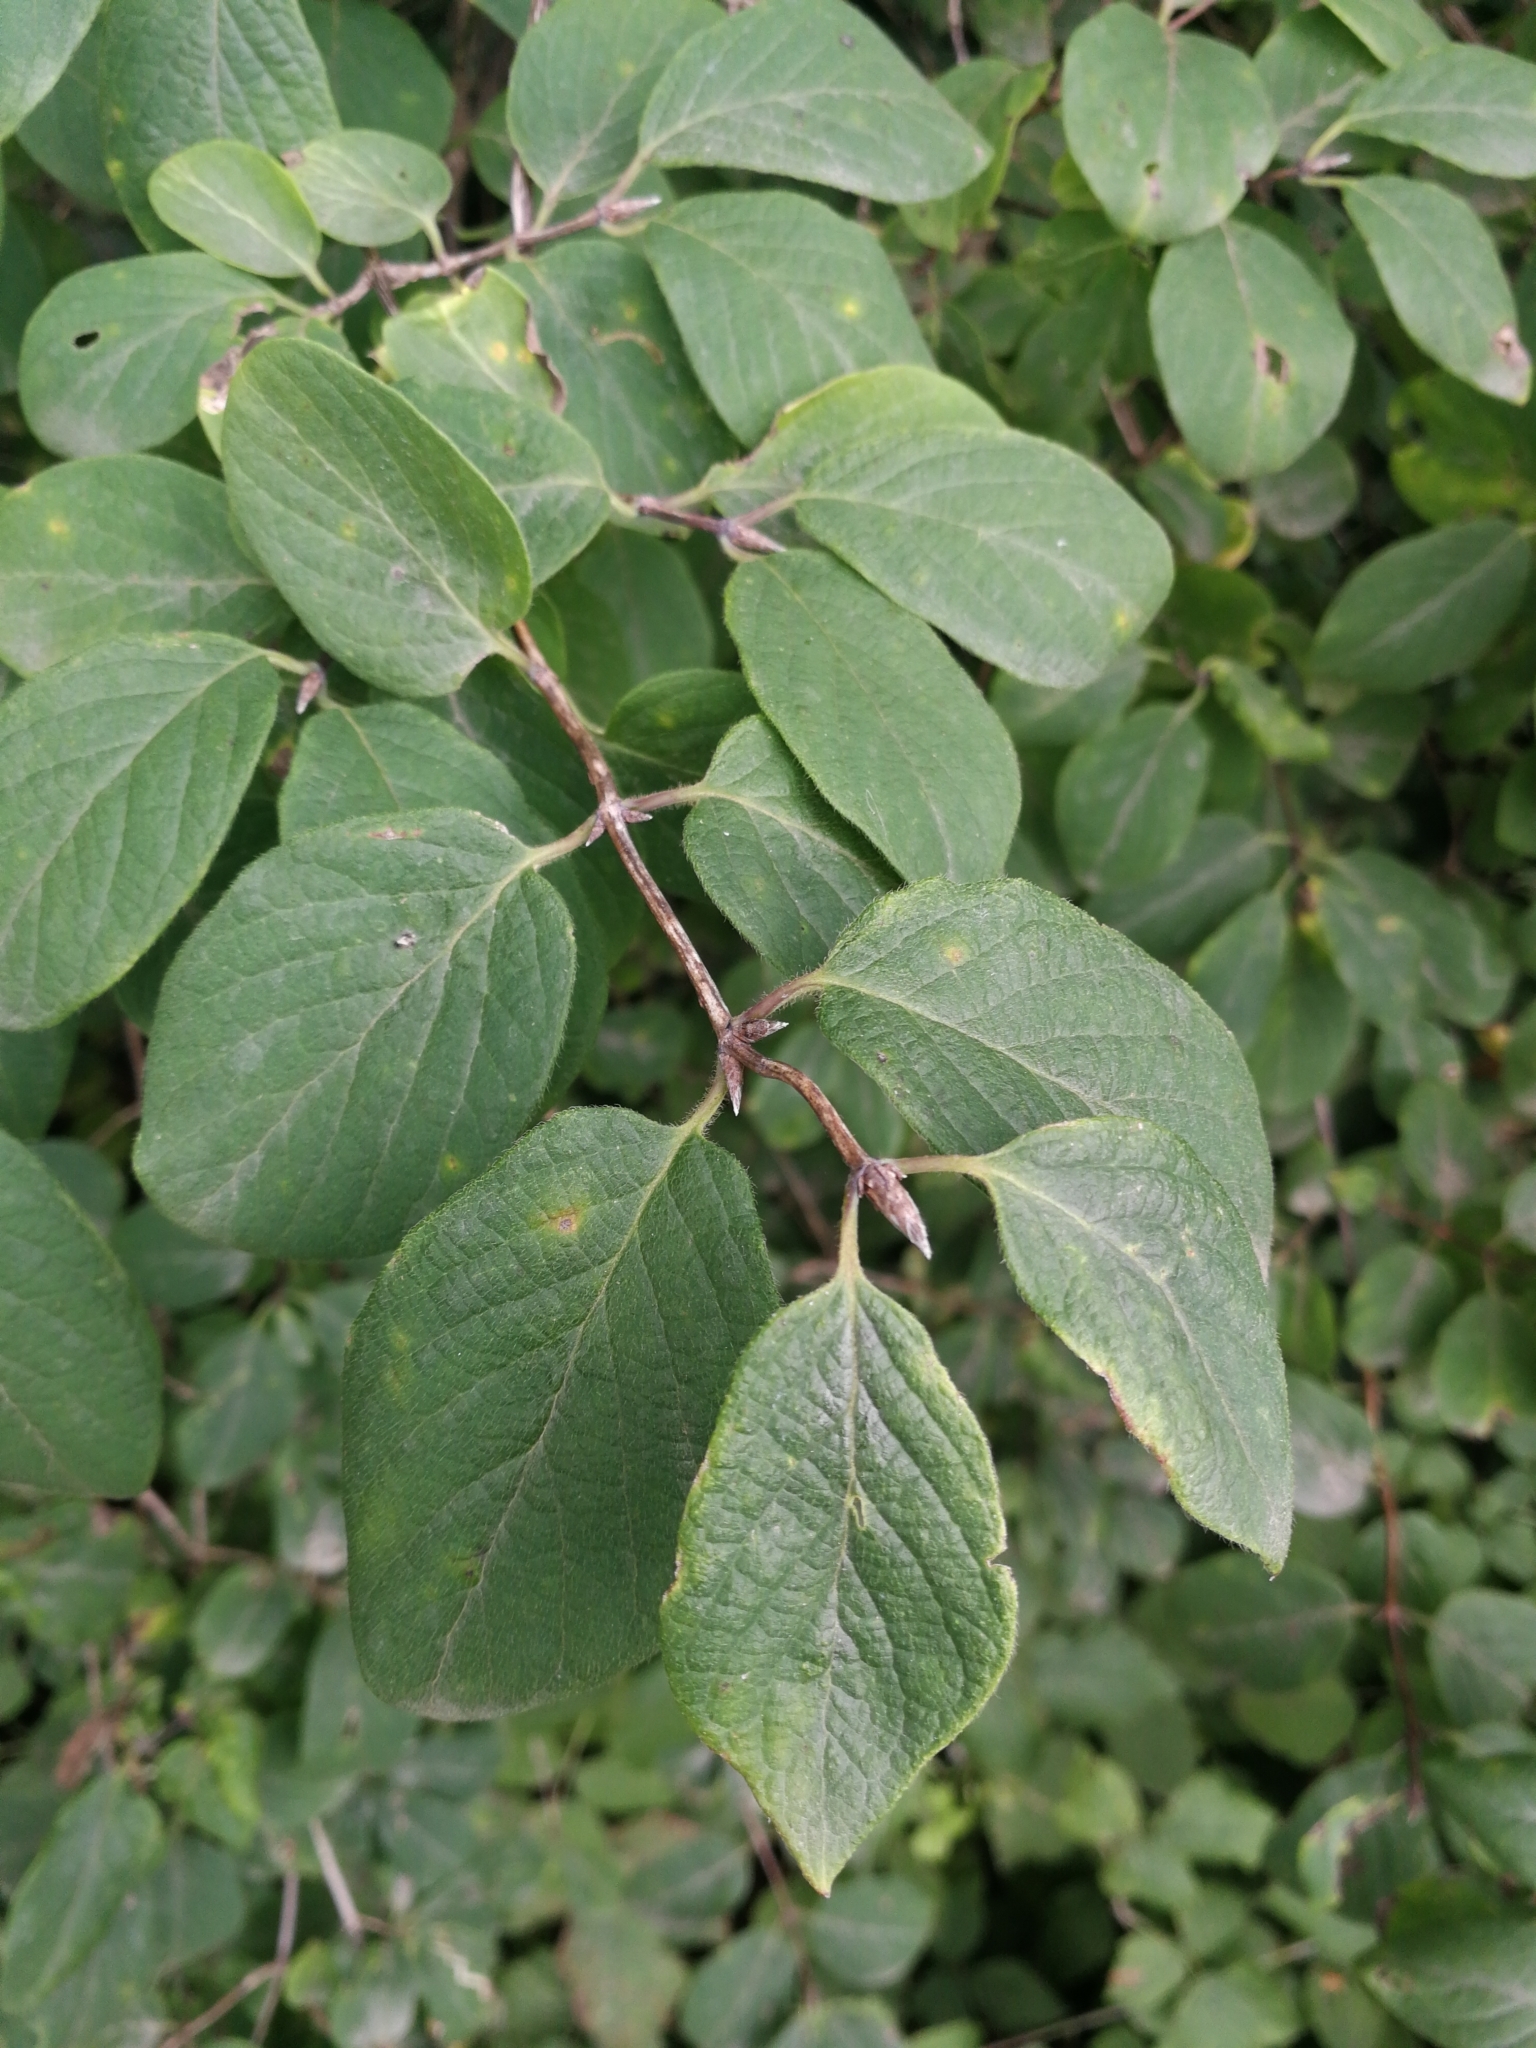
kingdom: Plantae
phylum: Tracheophyta
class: Magnoliopsida
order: Dipsacales
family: Caprifoliaceae
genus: Lonicera
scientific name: Lonicera xylosteum
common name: Fly honeysuckle
